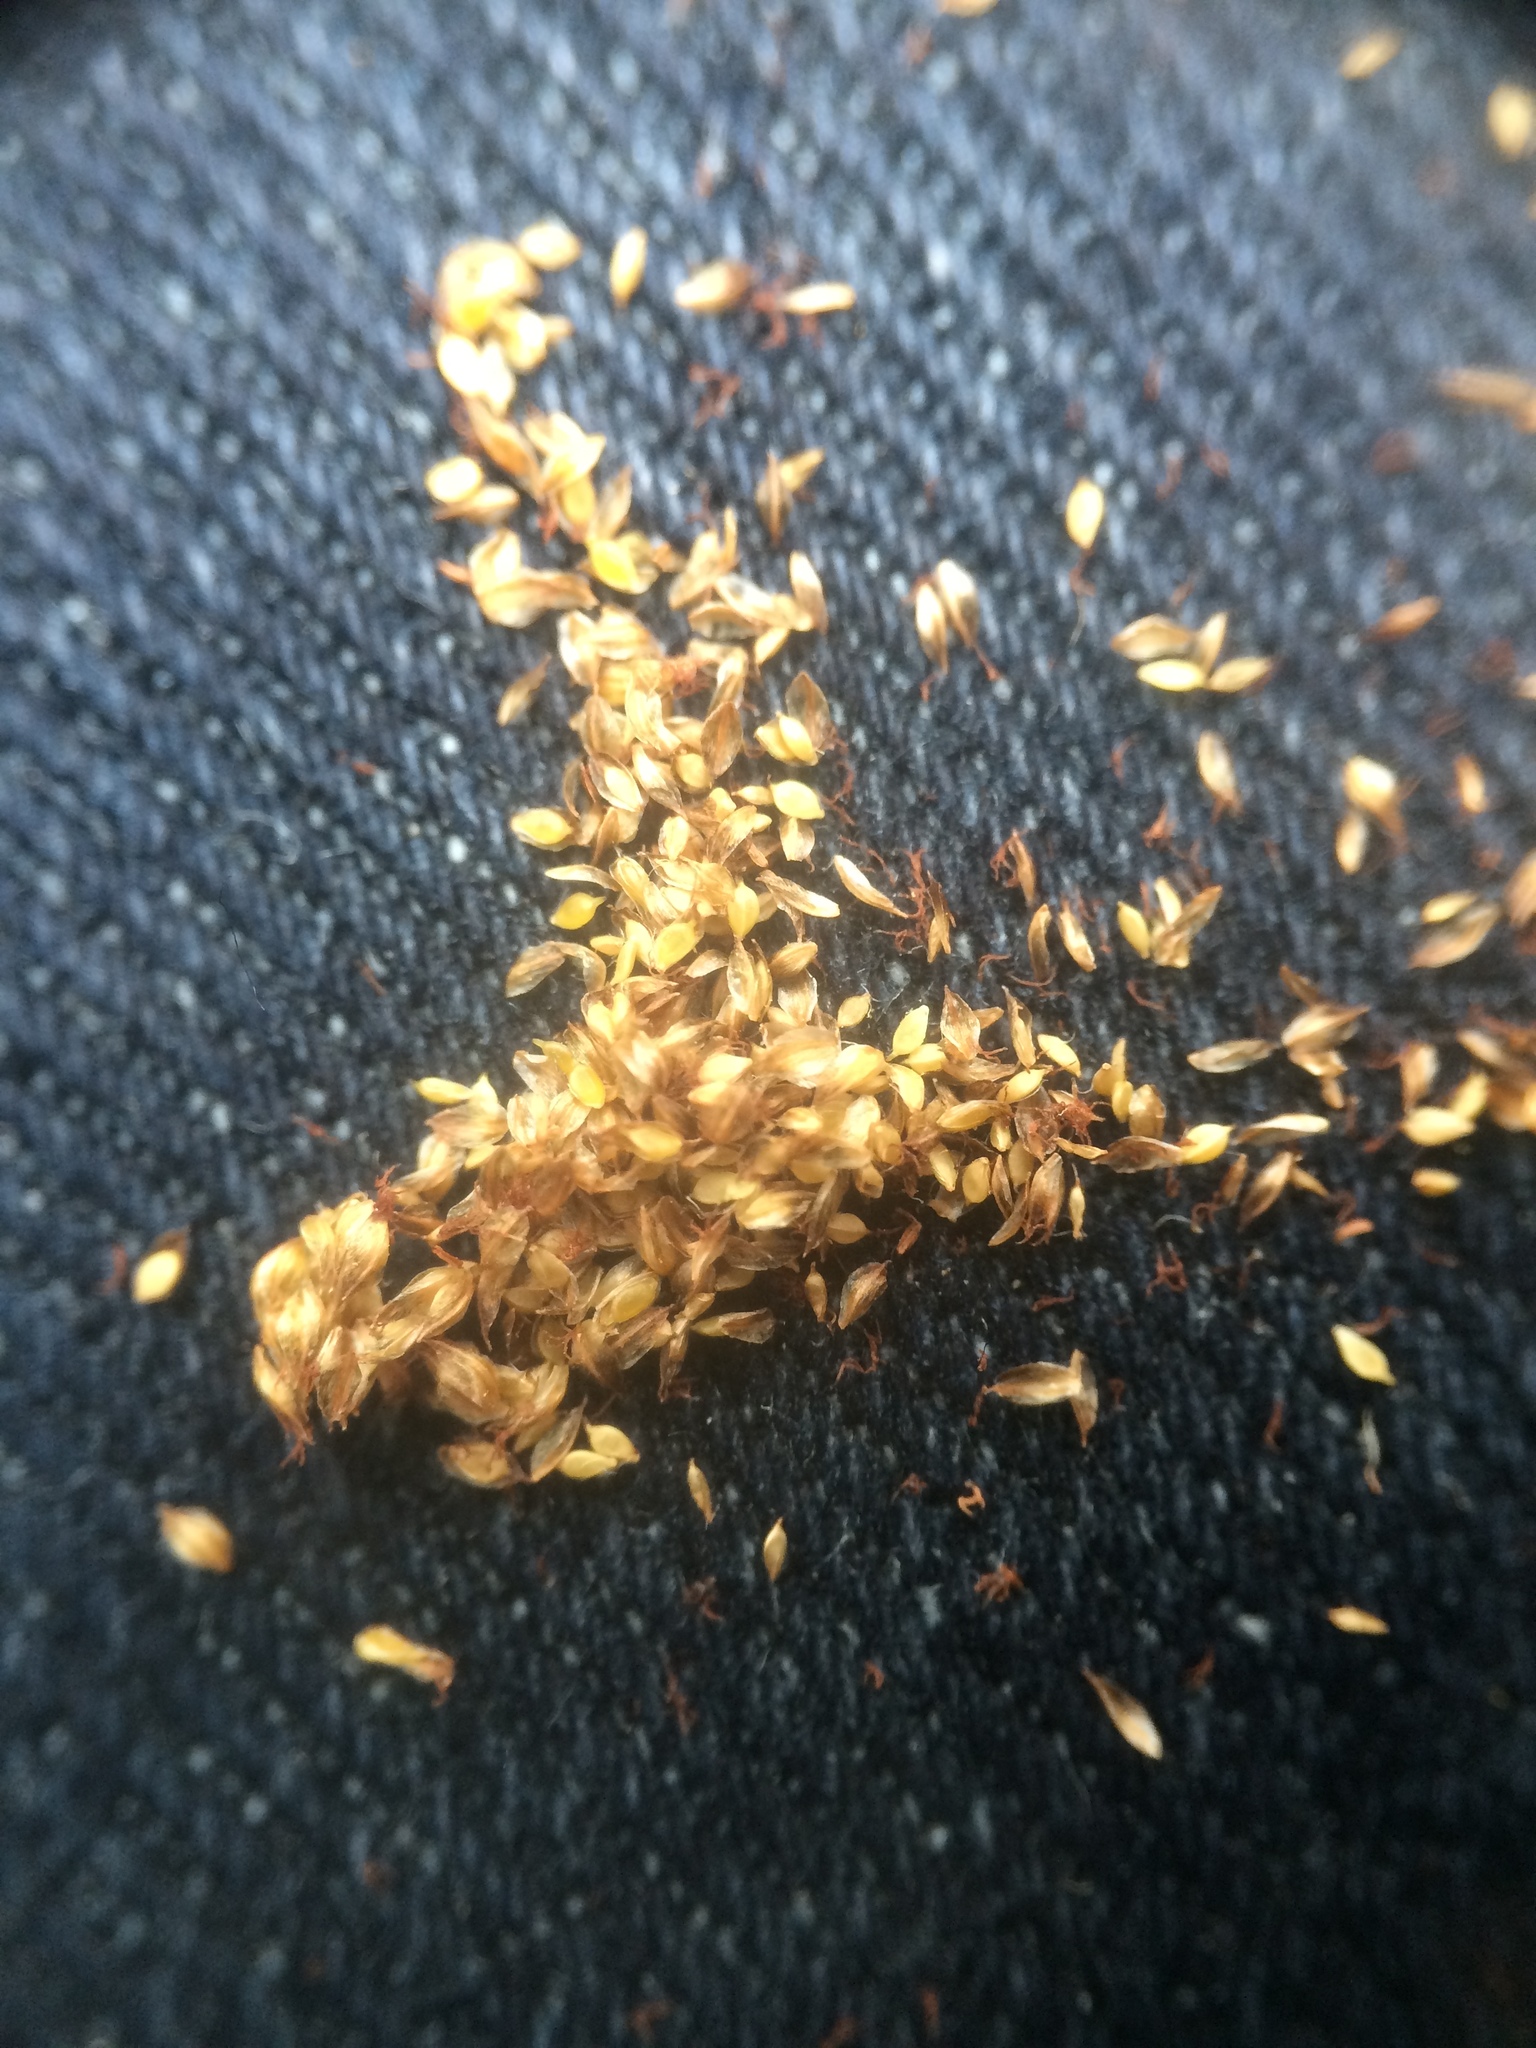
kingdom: Plantae
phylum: Tracheophyta
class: Liliopsida
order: Poales
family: Cyperaceae
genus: Scirpus
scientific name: Scirpus hattorianus
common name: Early dark-green bulrush
